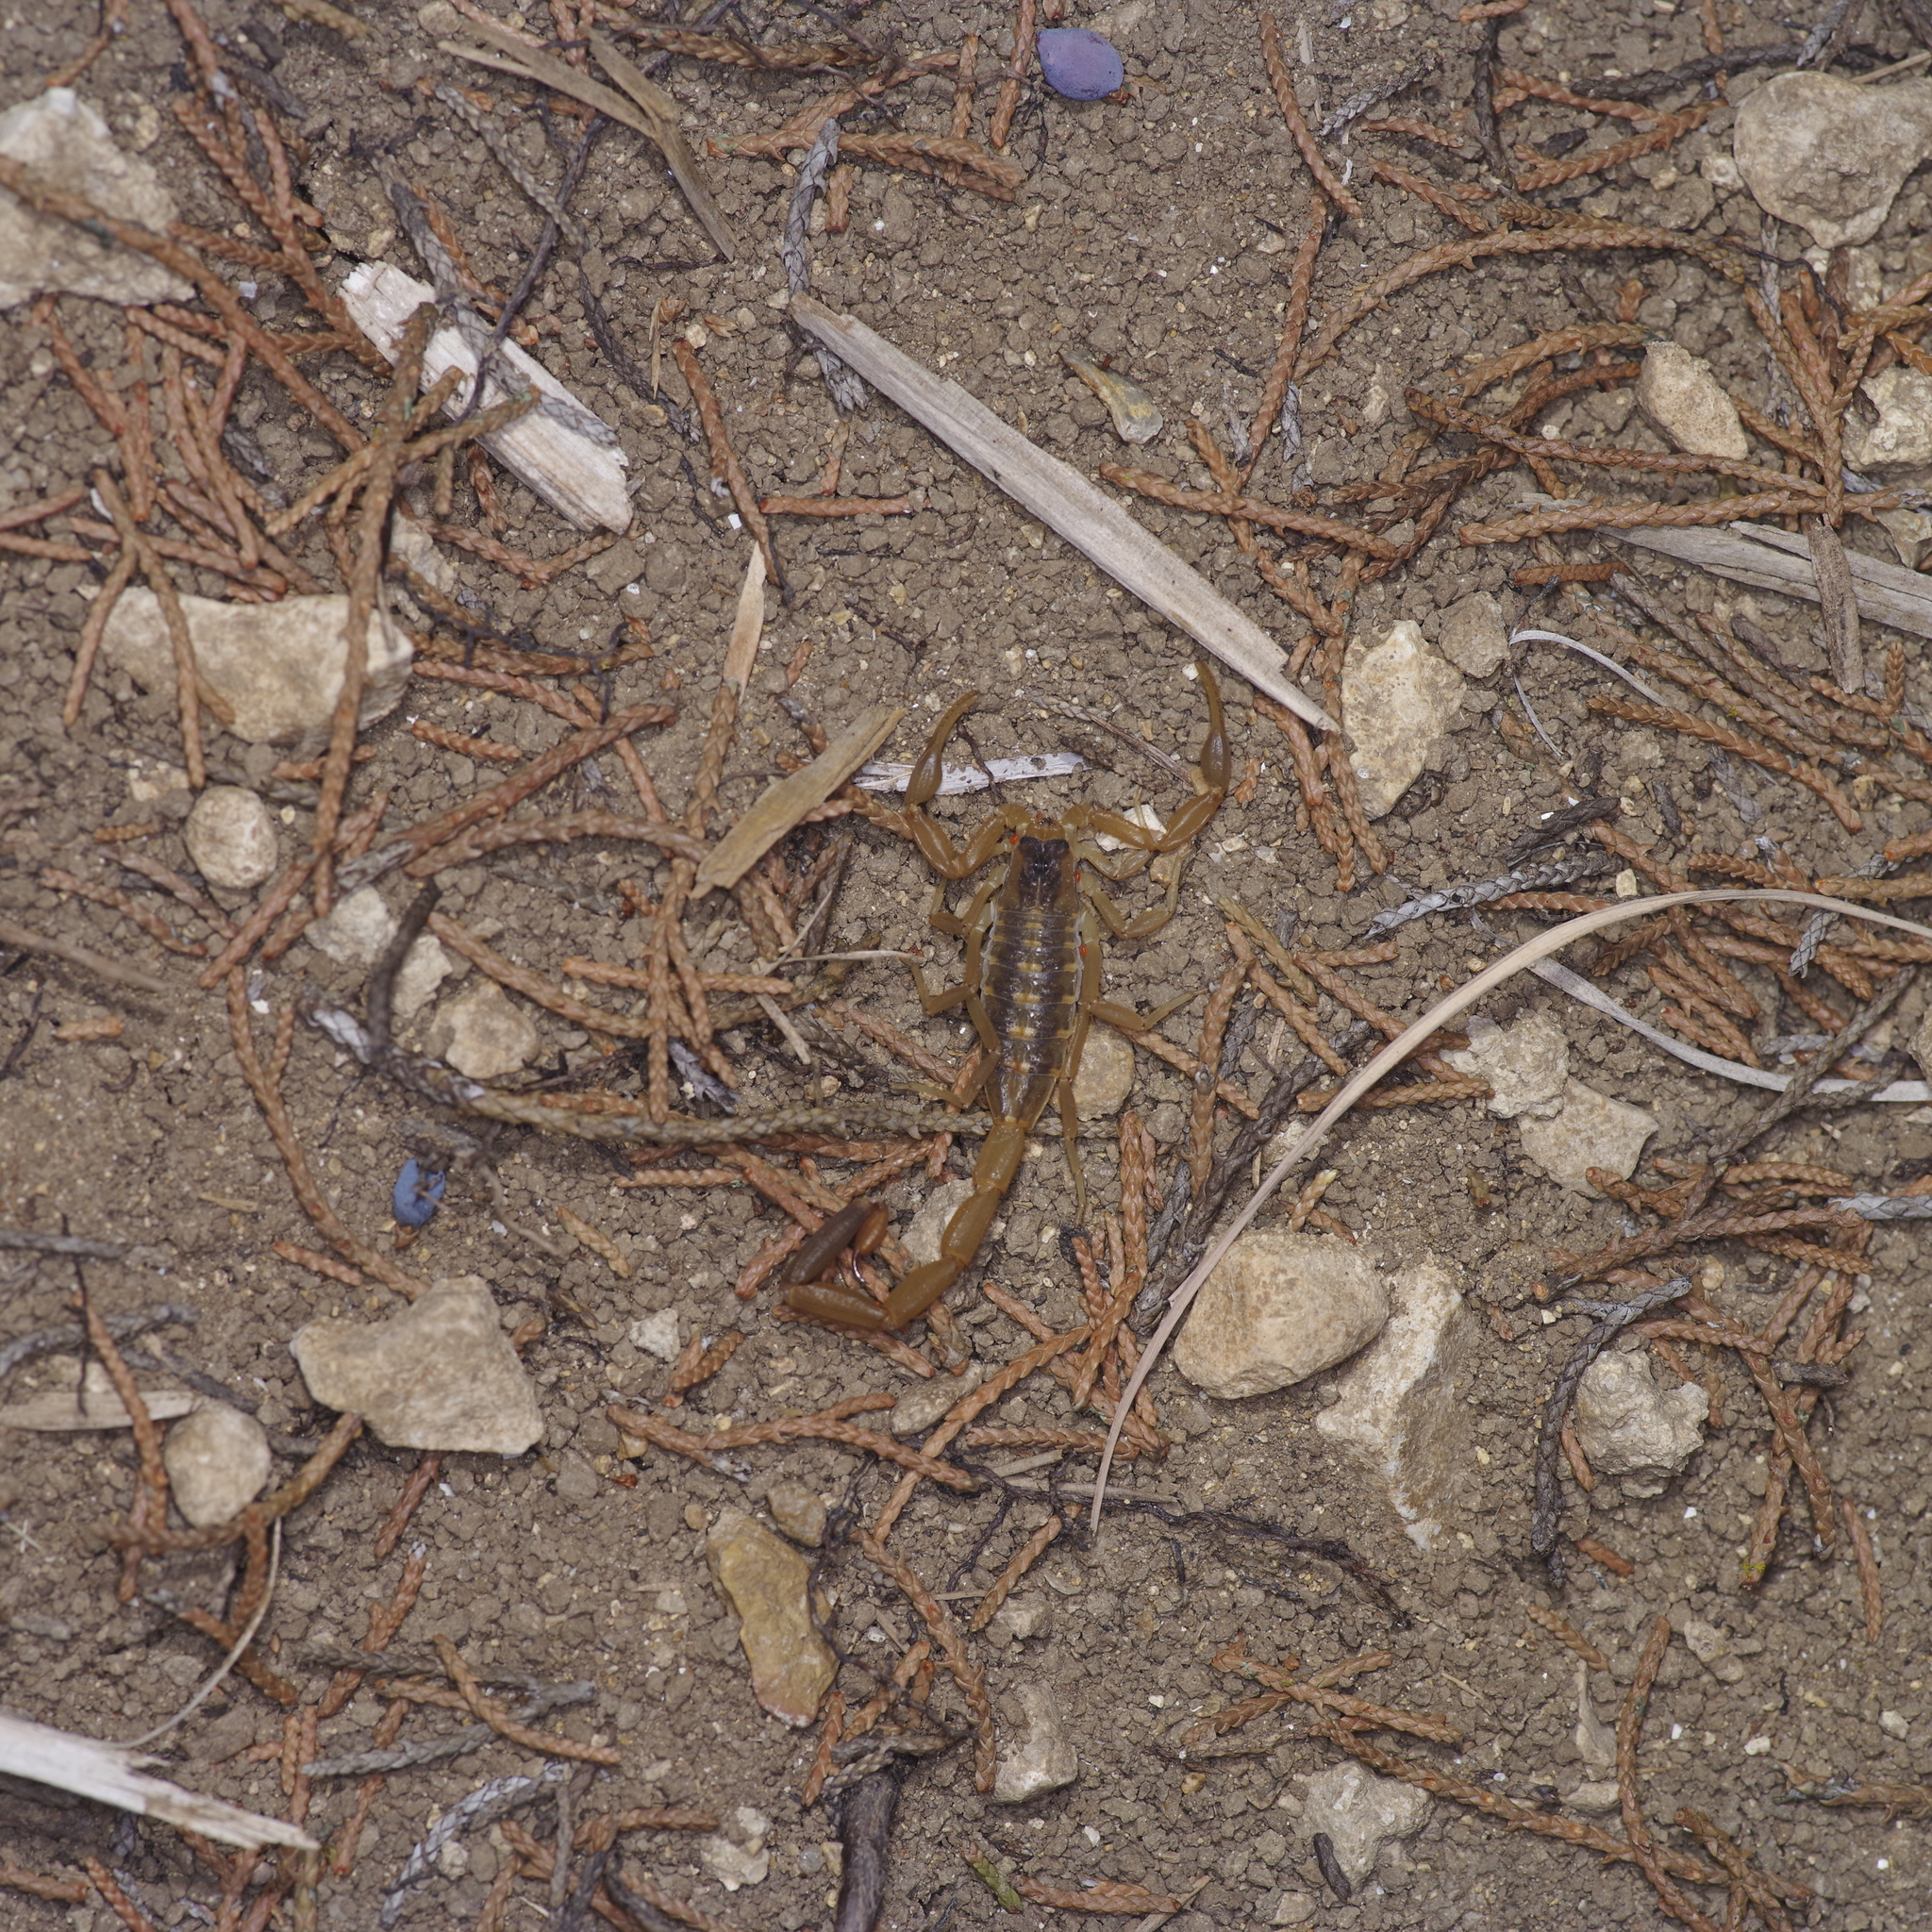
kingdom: Animalia
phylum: Arthropoda
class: Arachnida
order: Scorpiones
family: Buthidae
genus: Centruroides
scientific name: Centruroides vittatus
